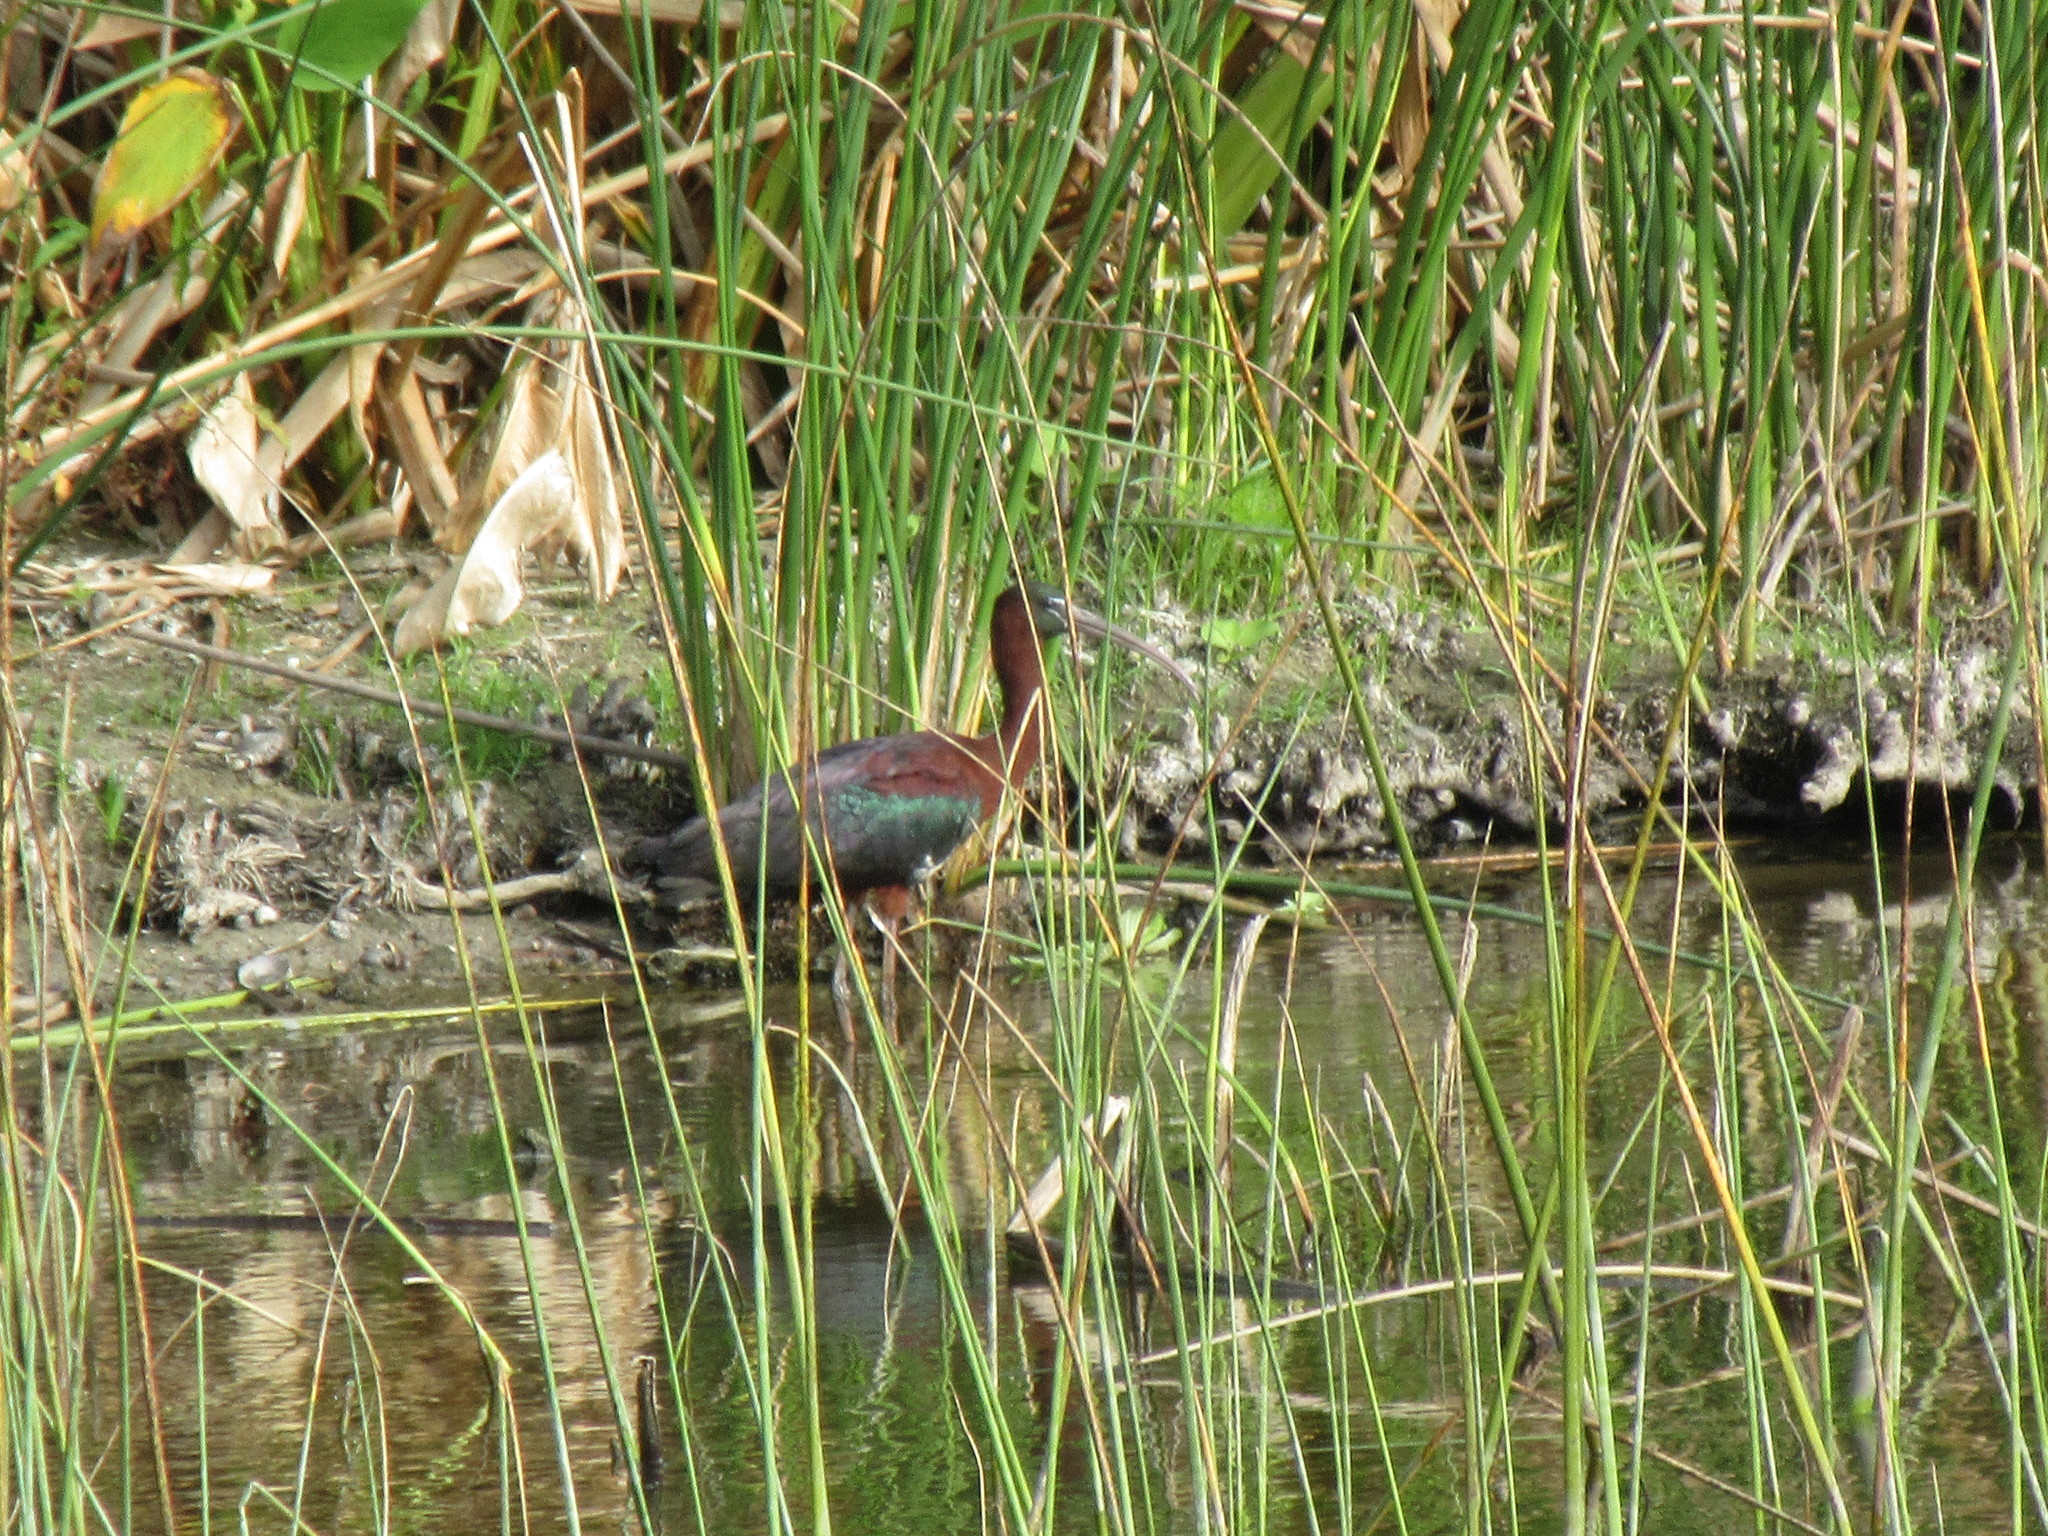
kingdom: Animalia
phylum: Chordata
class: Aves
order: Pelecaniformes
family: Threskiornithidae
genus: Plegadis
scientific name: Plegadis falcinellus
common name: Glossy ibis
